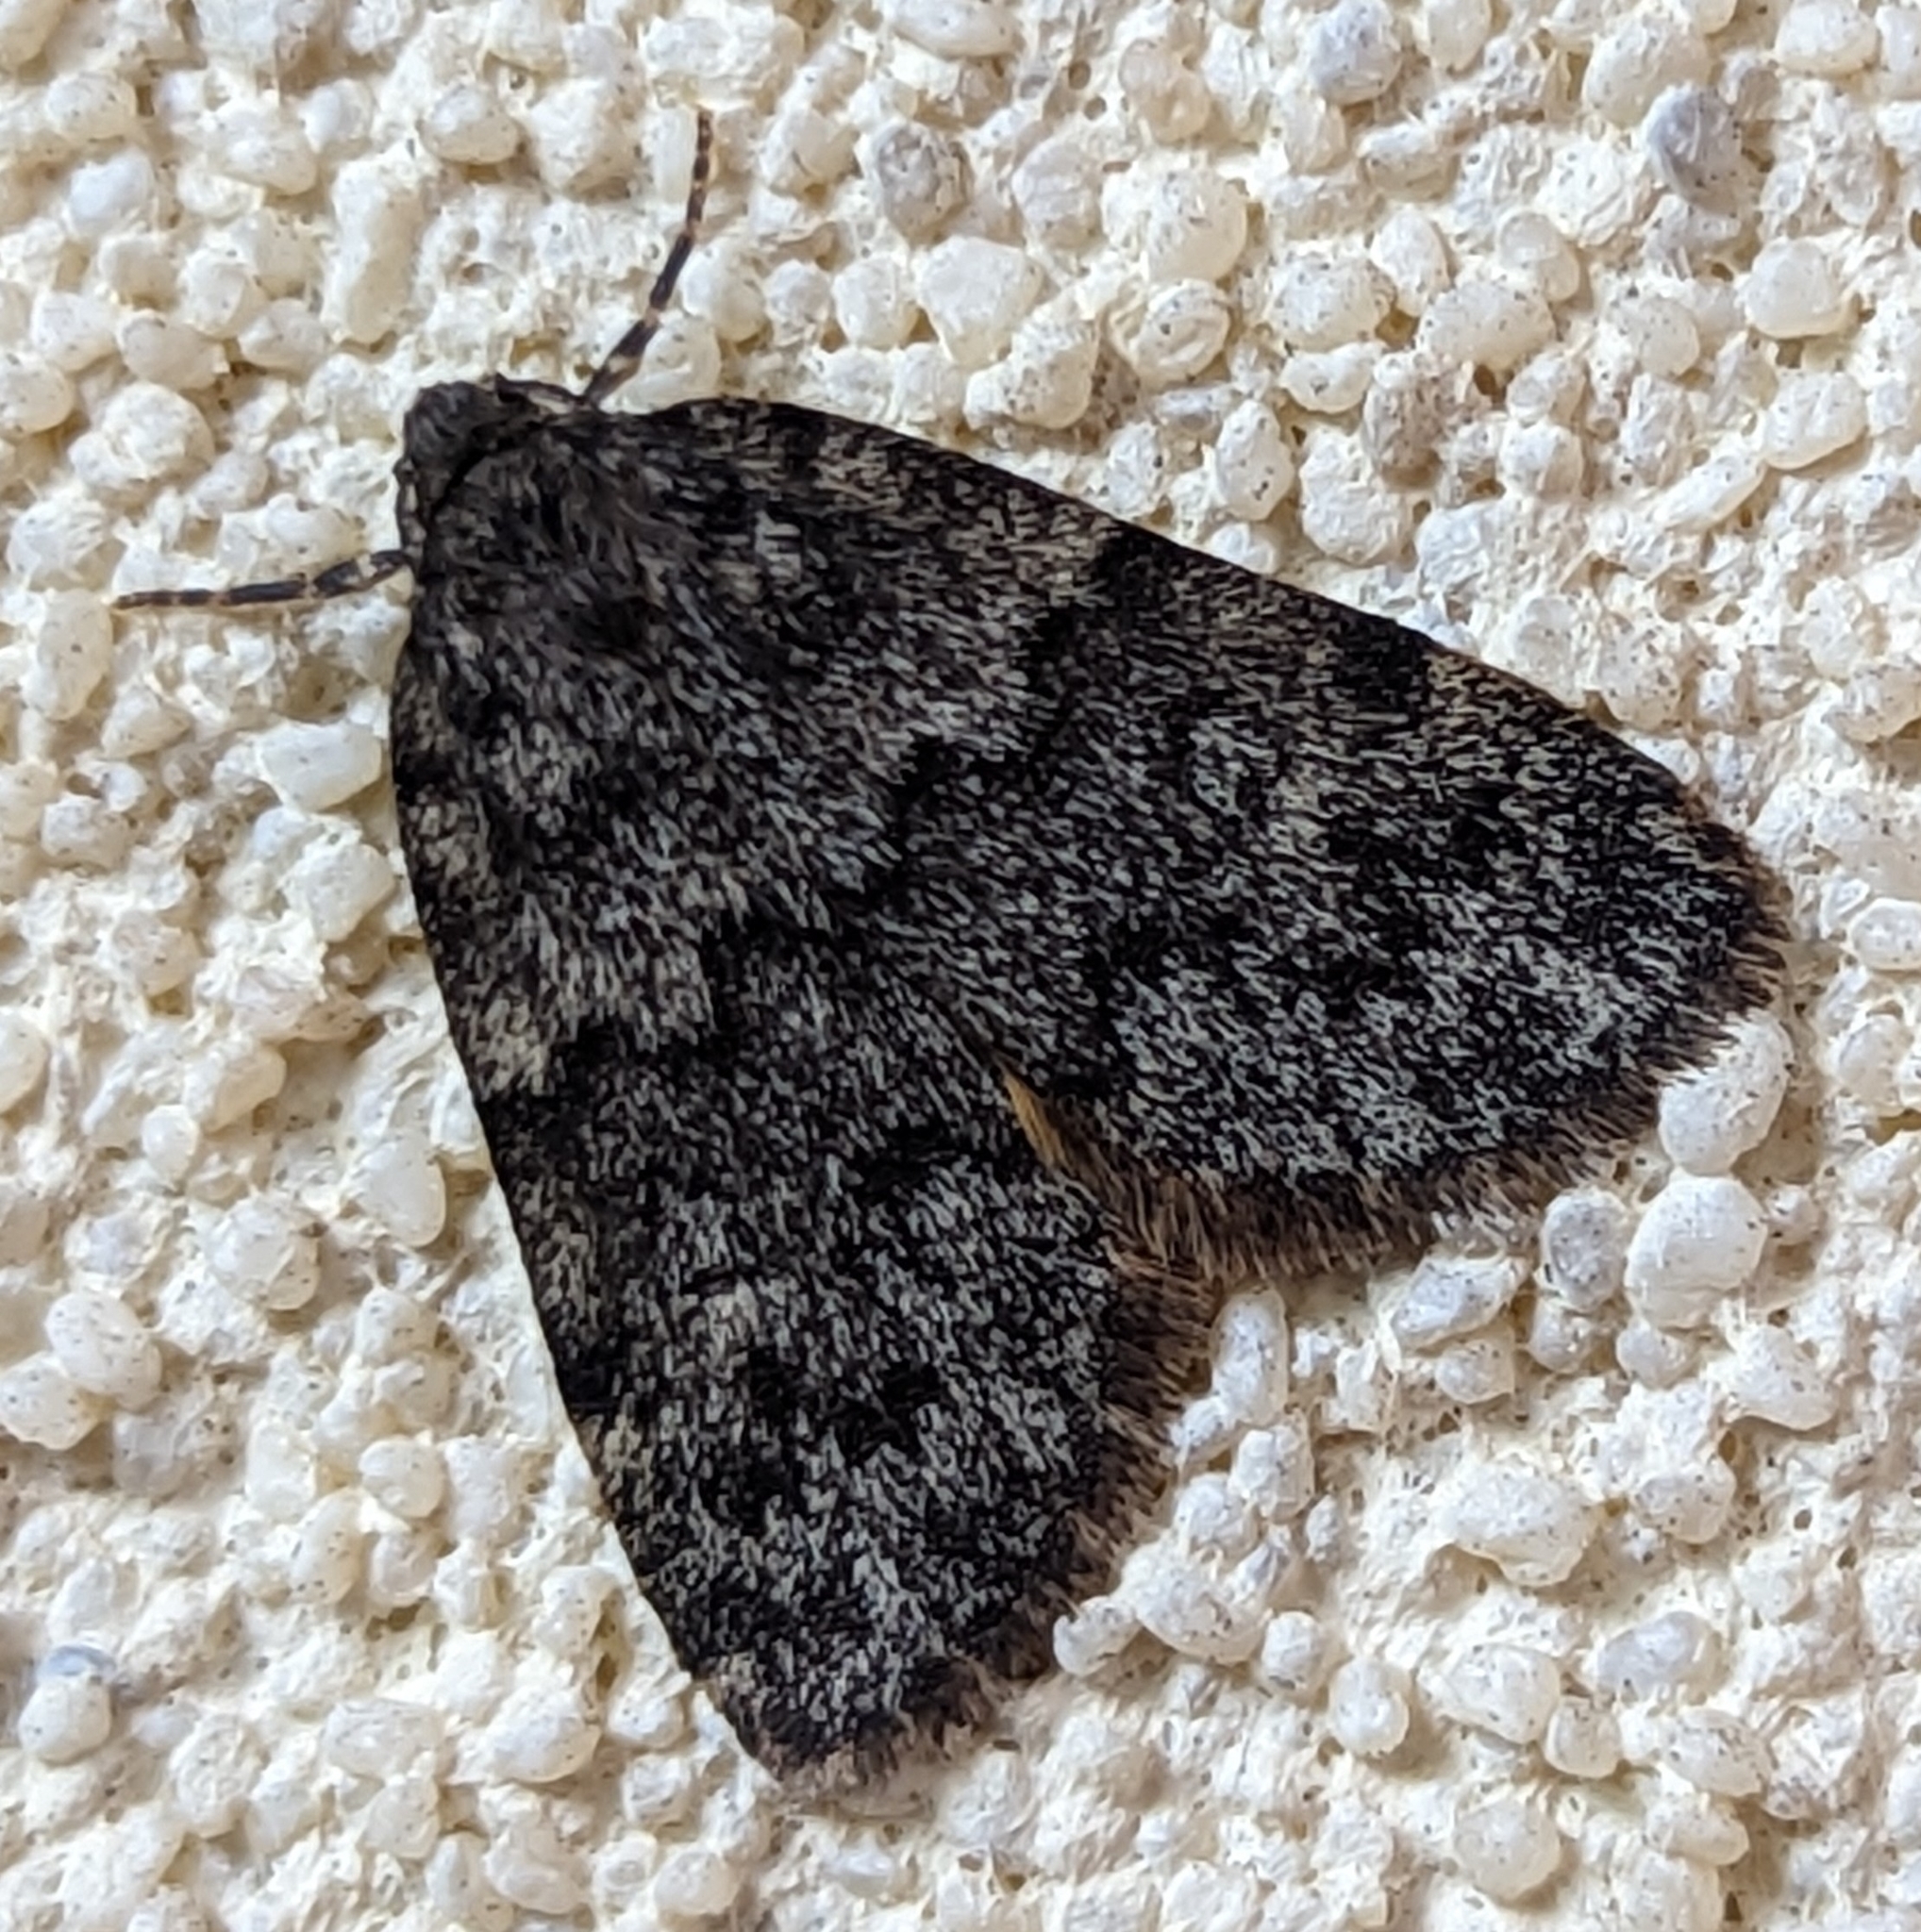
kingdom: Animalia
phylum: Arthropoda
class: Insecta
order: Lepidoptera
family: Erebidae
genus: Halone
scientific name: Halone consolatrix
